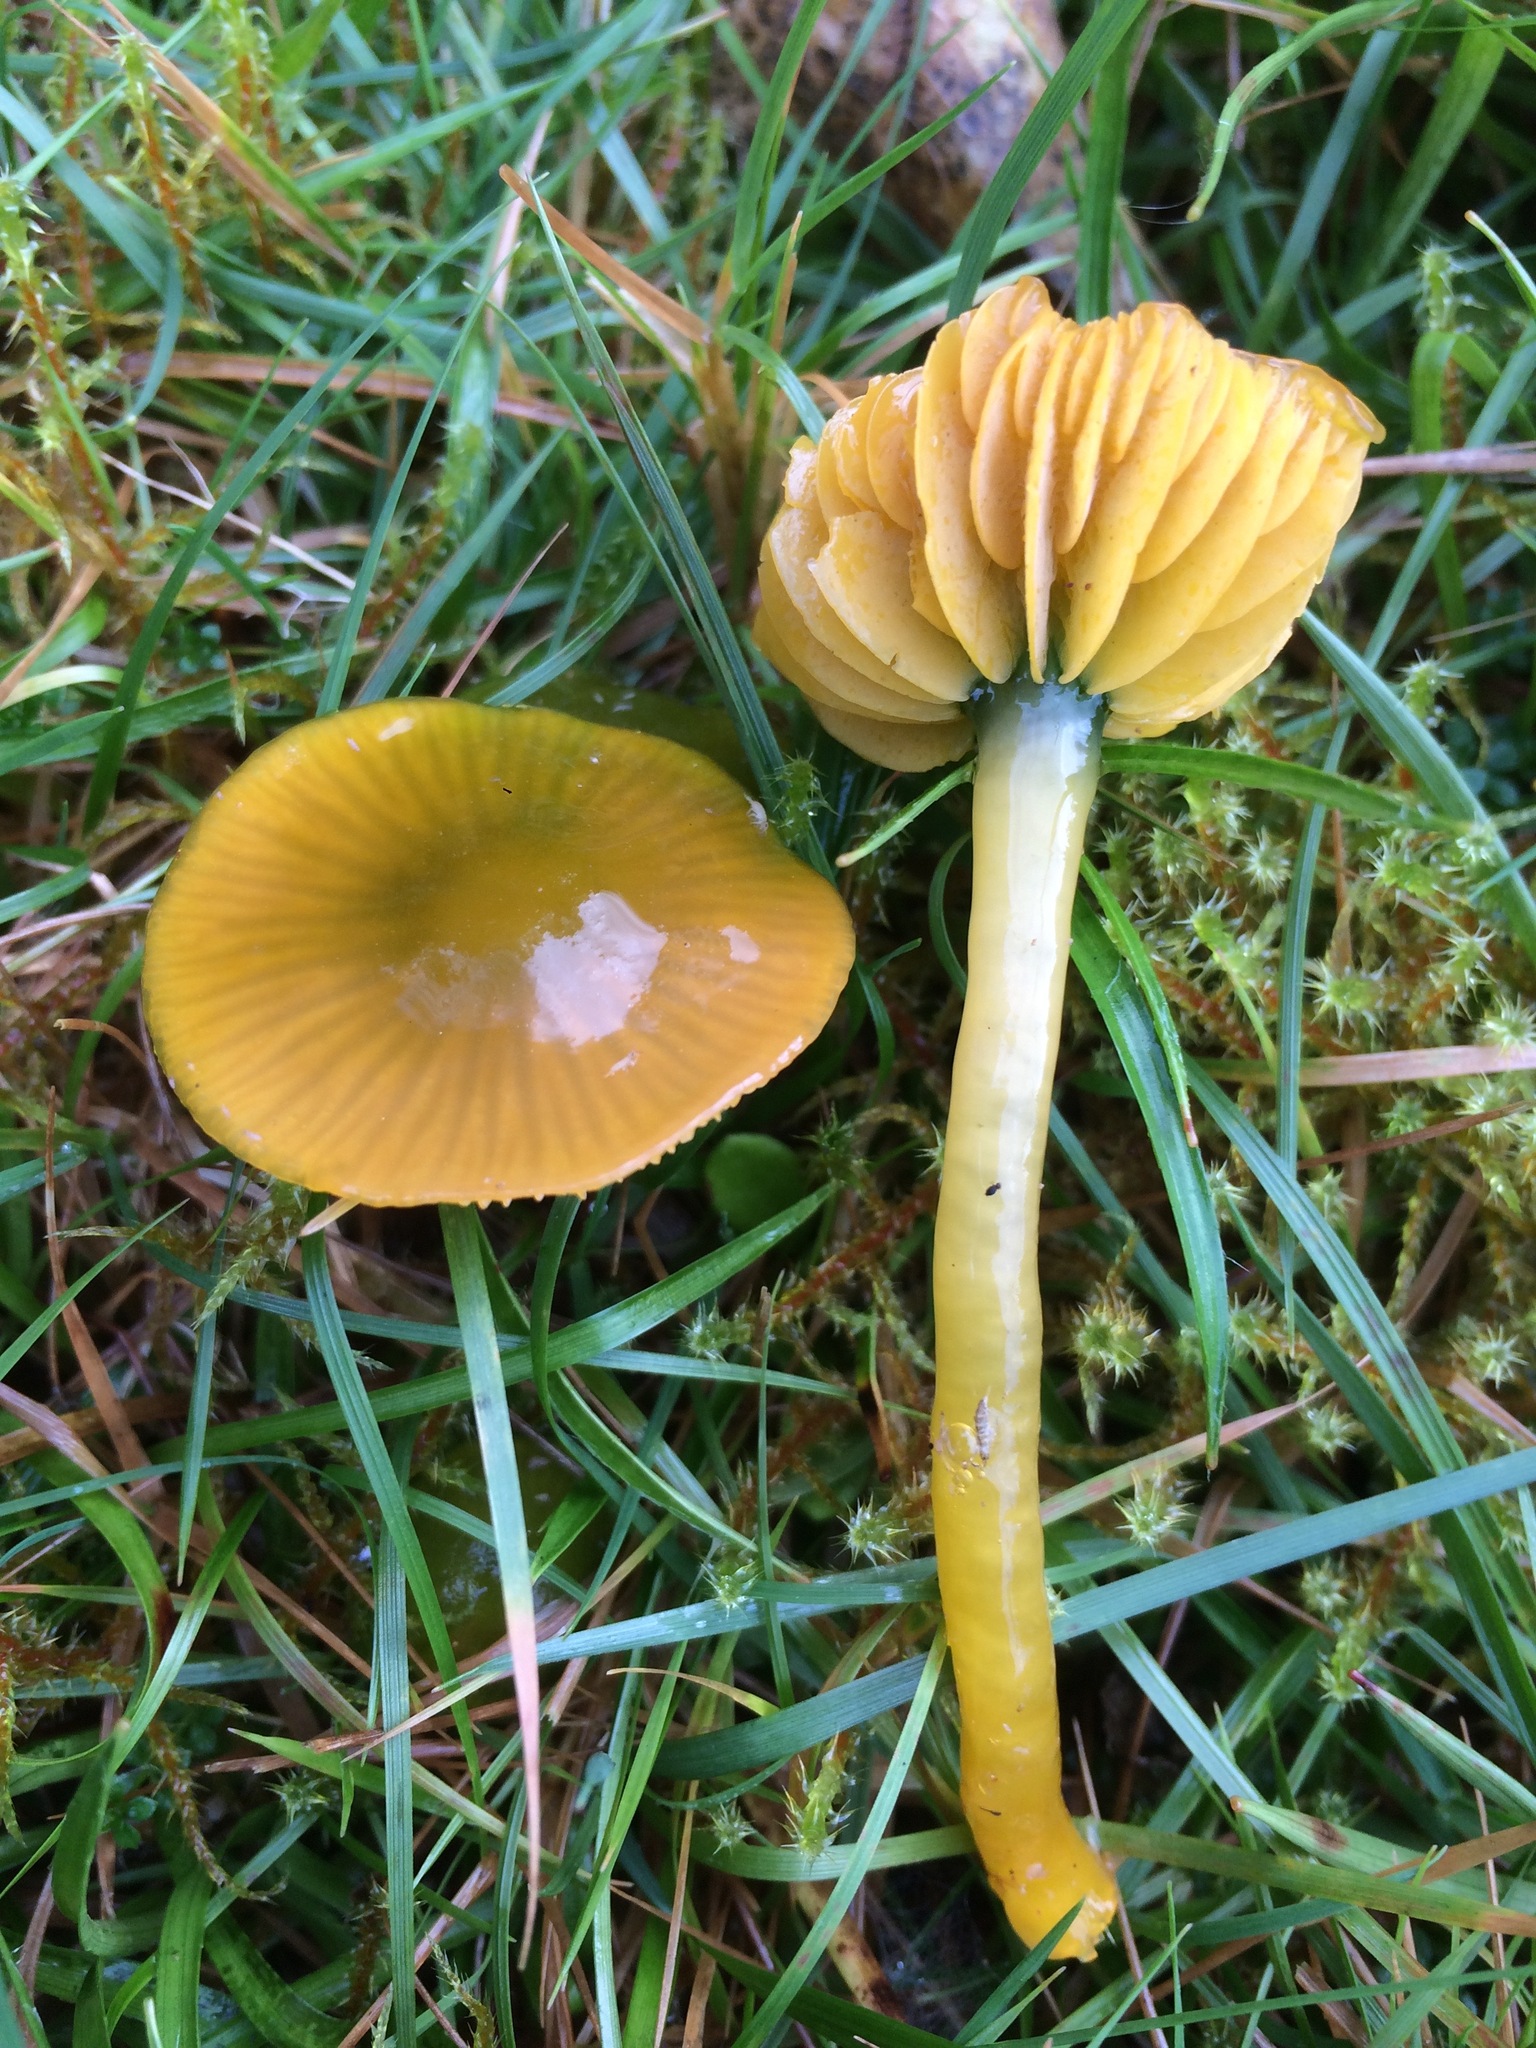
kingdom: Fungi
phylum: Basidiomycota
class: Agaricomycetes
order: Agaricales
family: Hygrophoraceae
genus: Gliophorus
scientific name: Gliophorus psittacinus
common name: Parrot wax-cap
